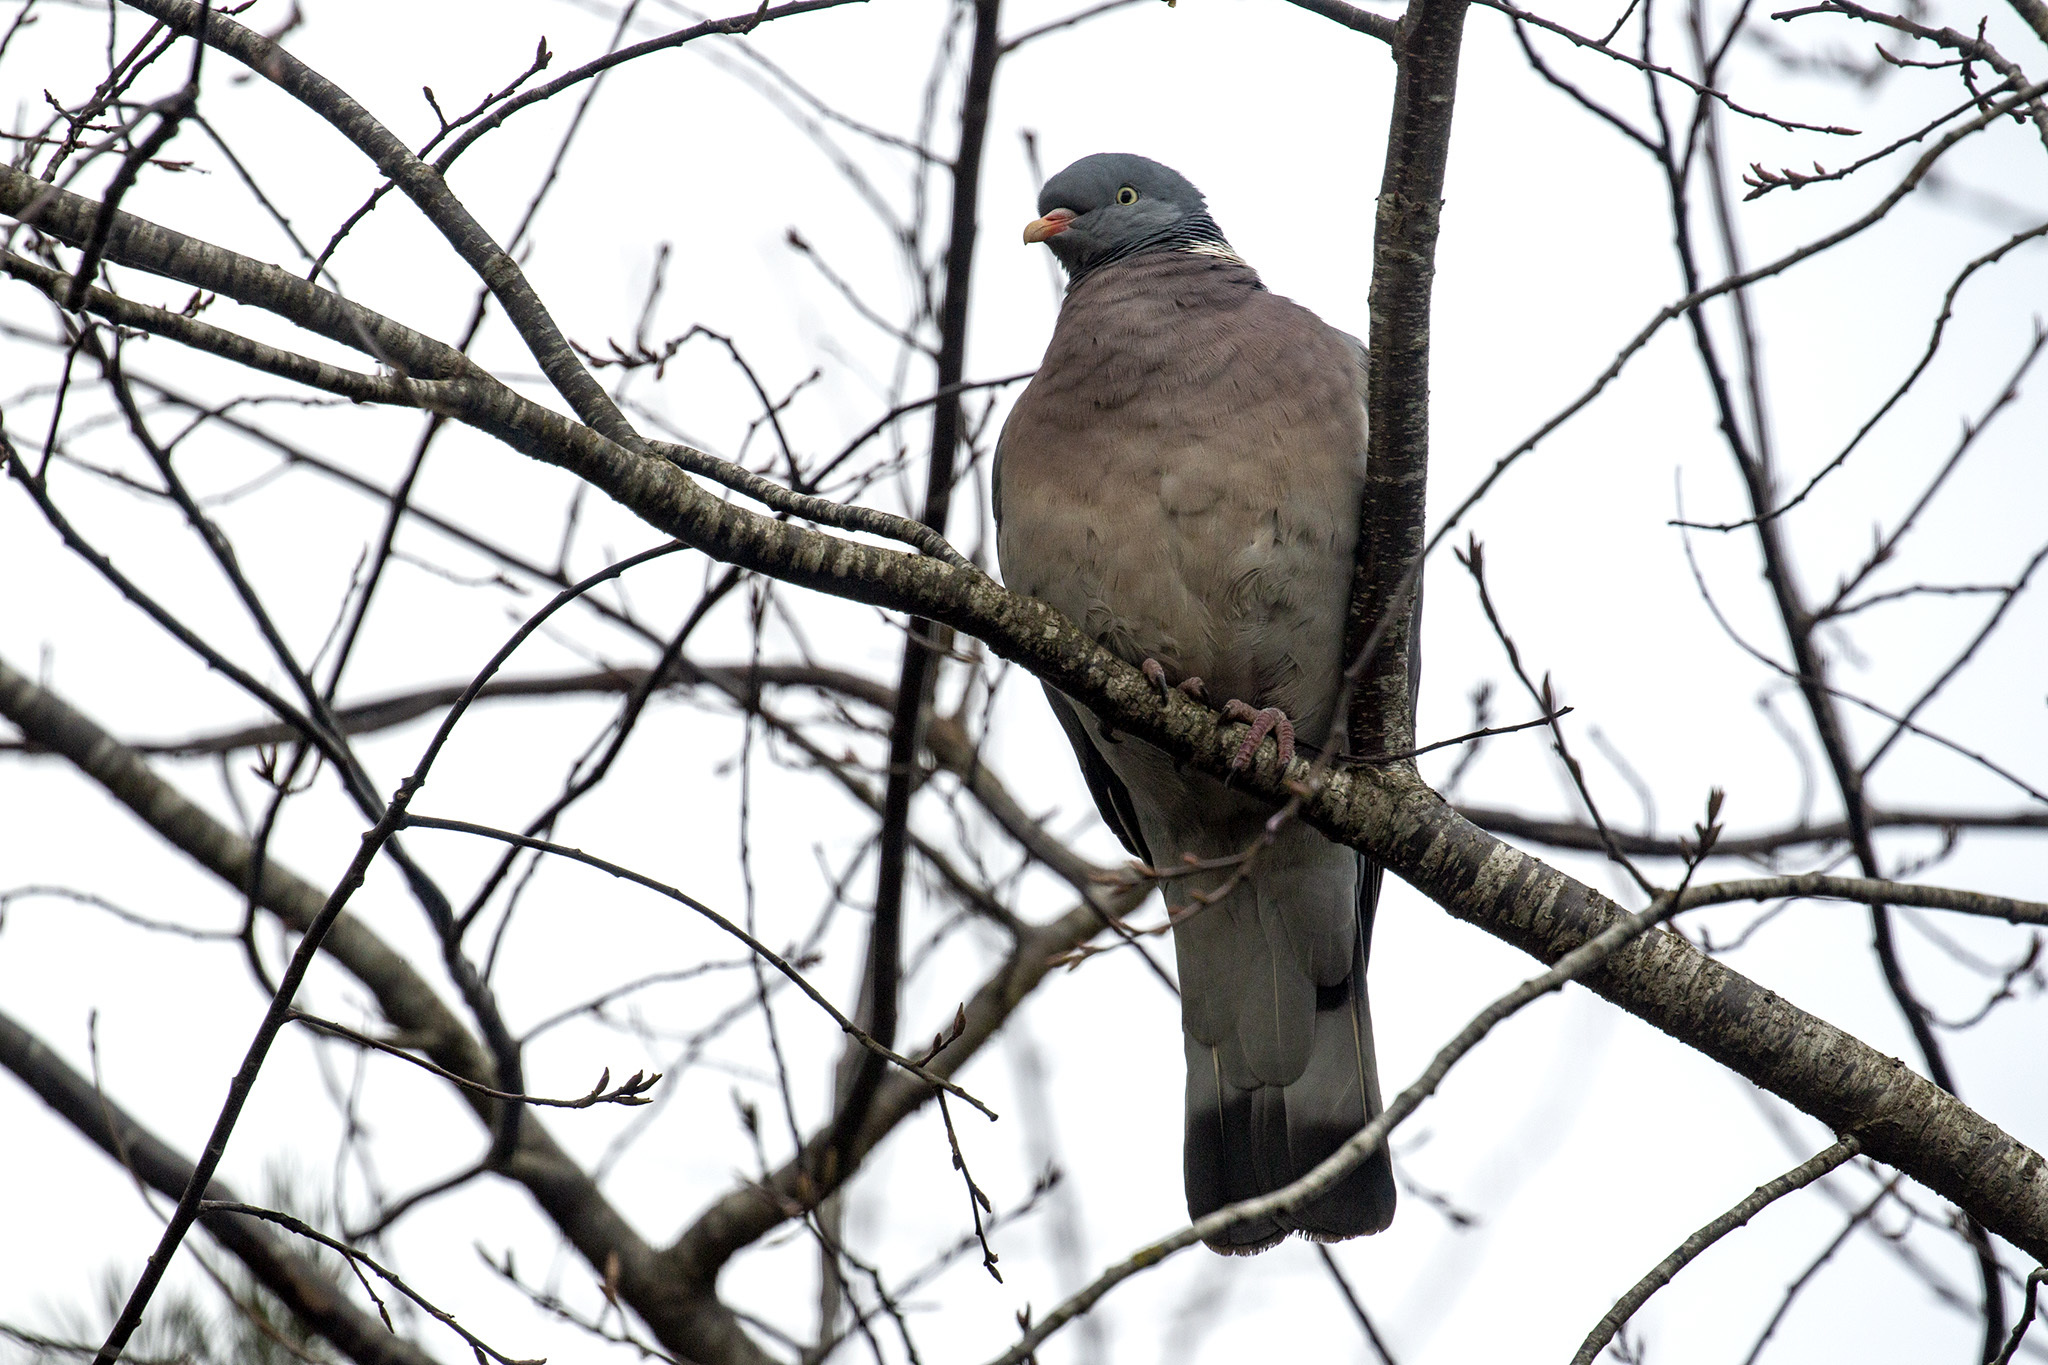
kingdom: Animalia
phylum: Chordata
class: Aves
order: Columbiformes
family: Columbidae
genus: Columba
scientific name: Columba palumbus
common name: Common wood pigeon
